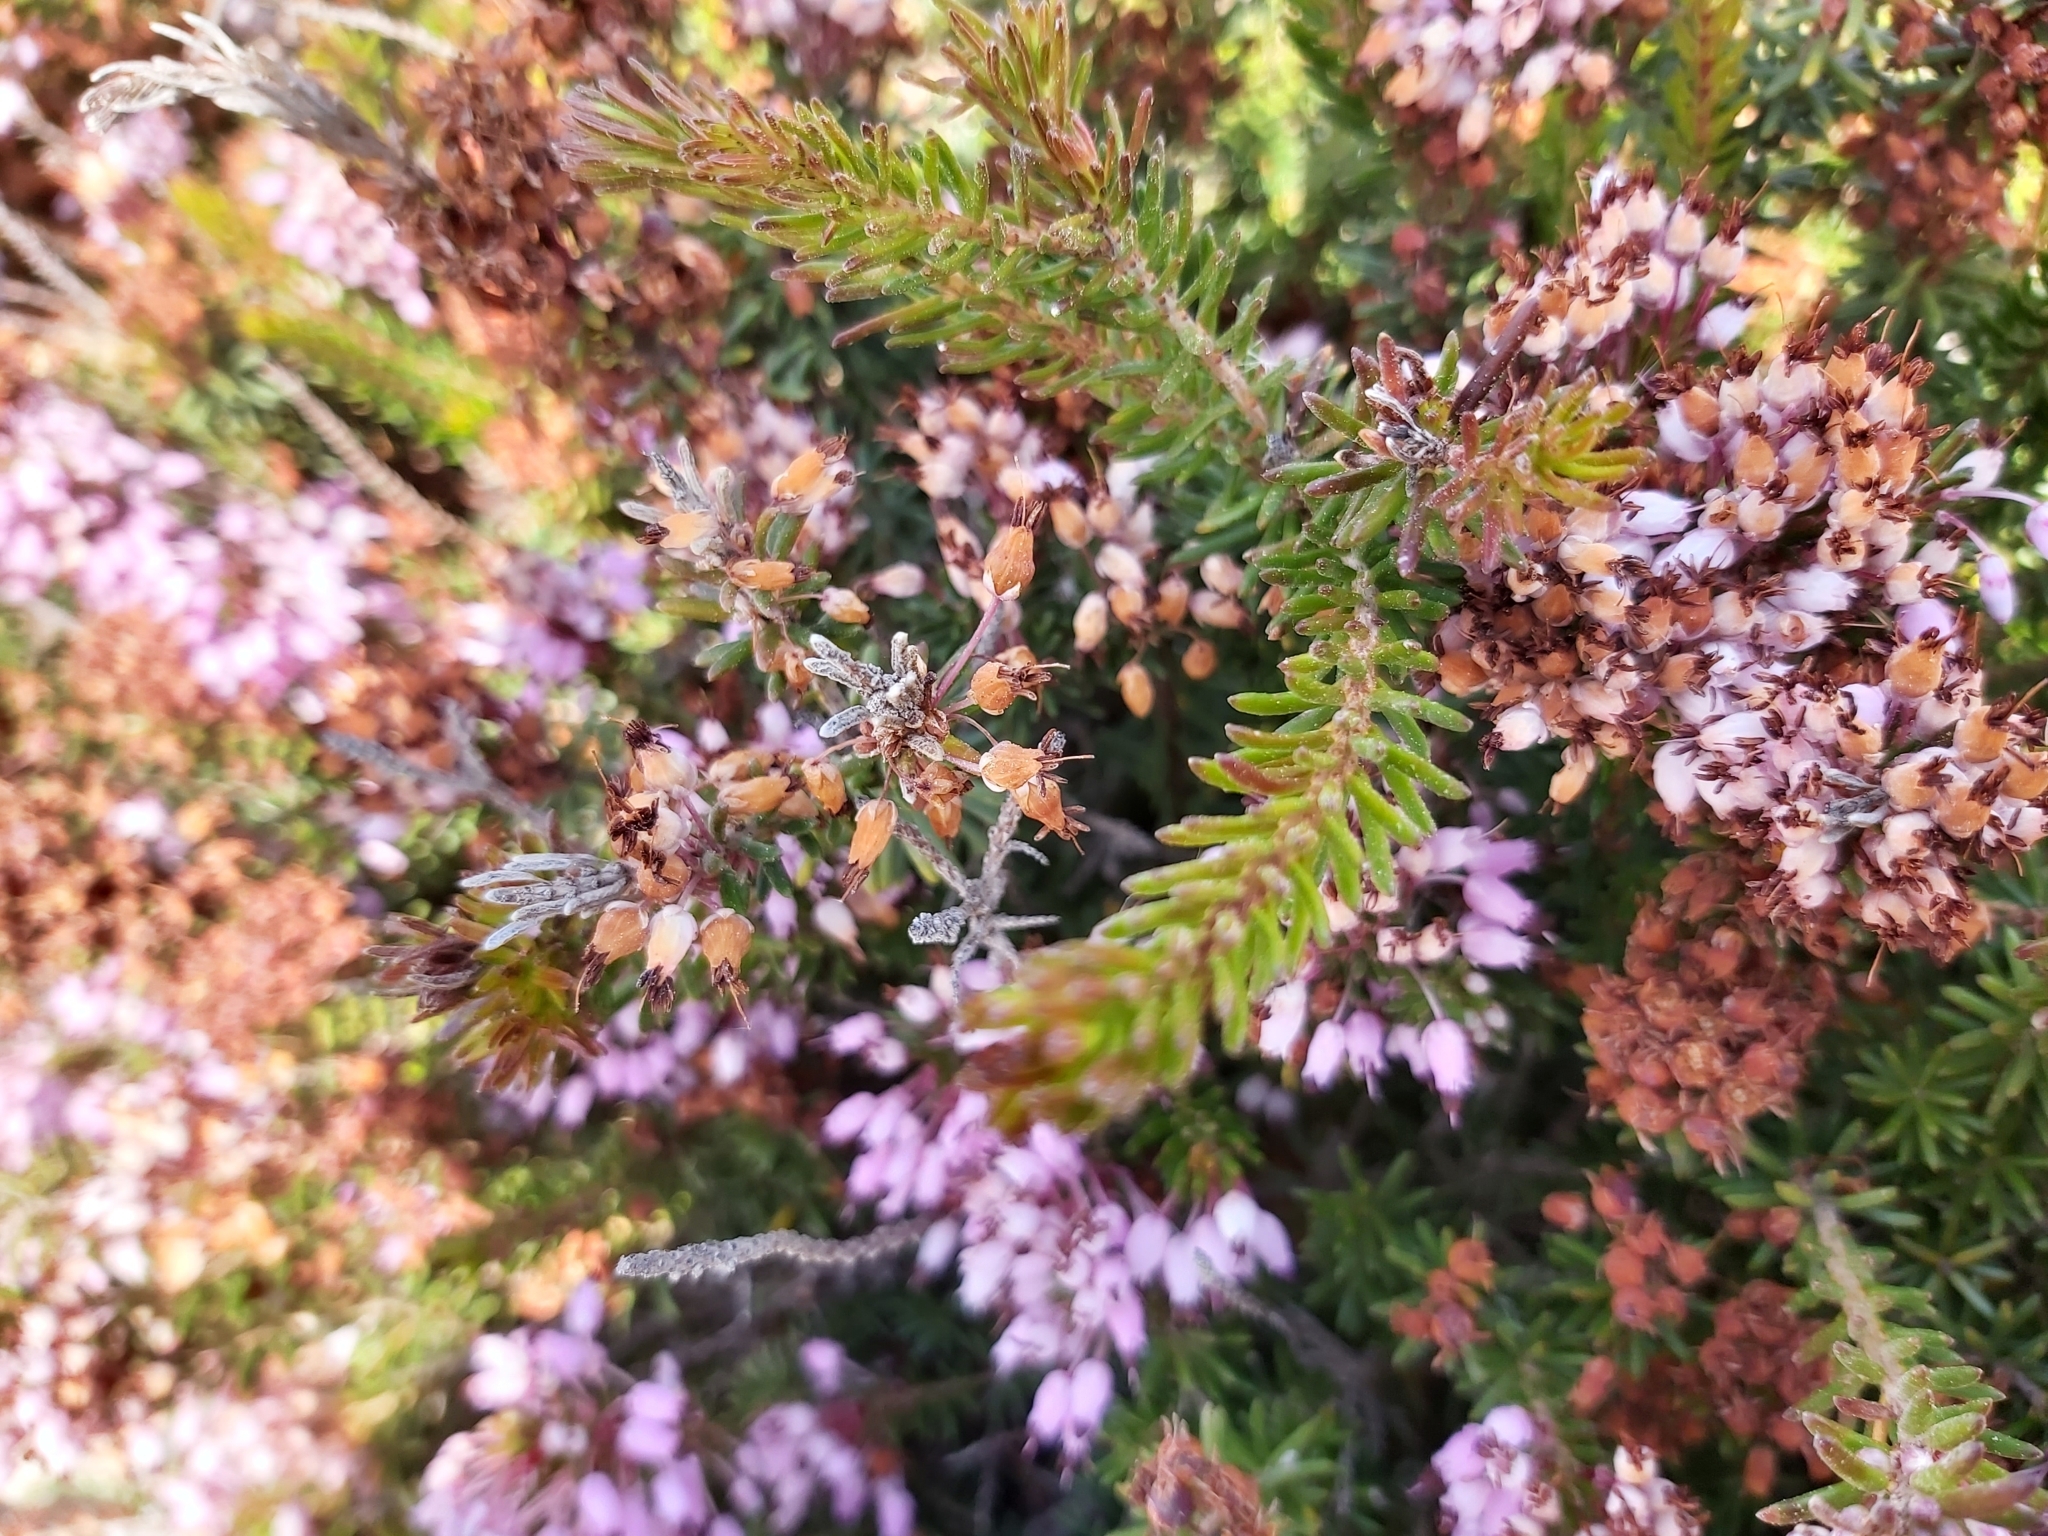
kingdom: Plantae
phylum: Tracheophyta
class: Magnoliopsida
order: Ericales
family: Ericaceae
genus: Erica
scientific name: Erica multiflora
